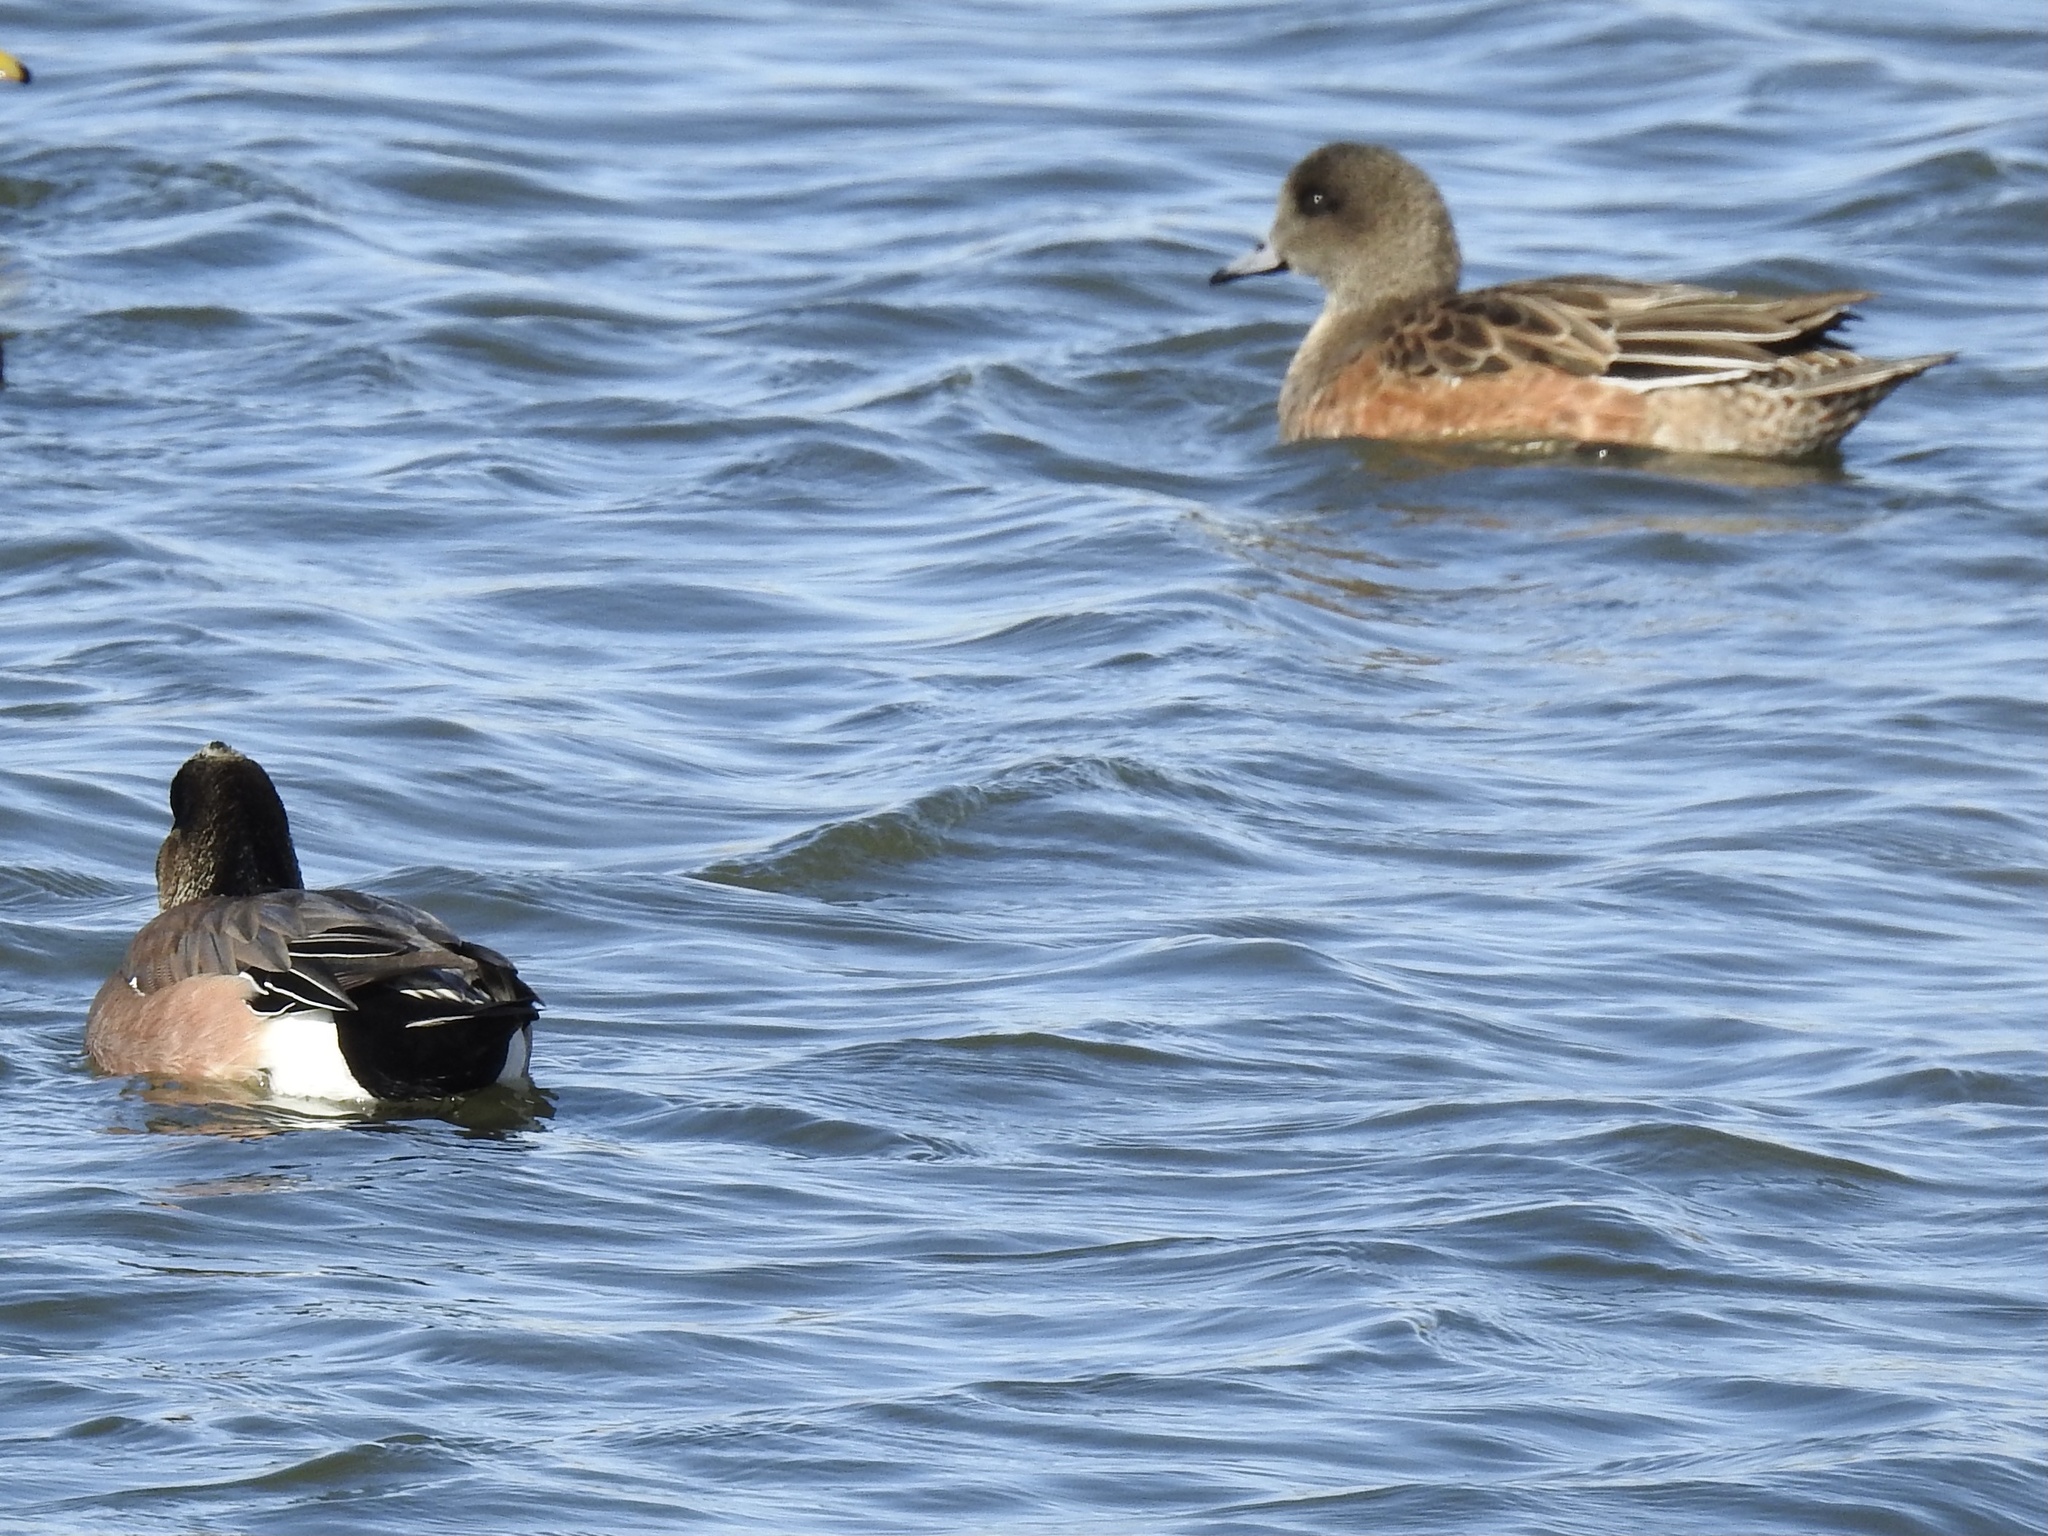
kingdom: Animalia
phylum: Chordata
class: Aves
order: Anseriformes
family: Anatidae
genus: Mareca
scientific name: Mareca americana
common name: American wigeon
